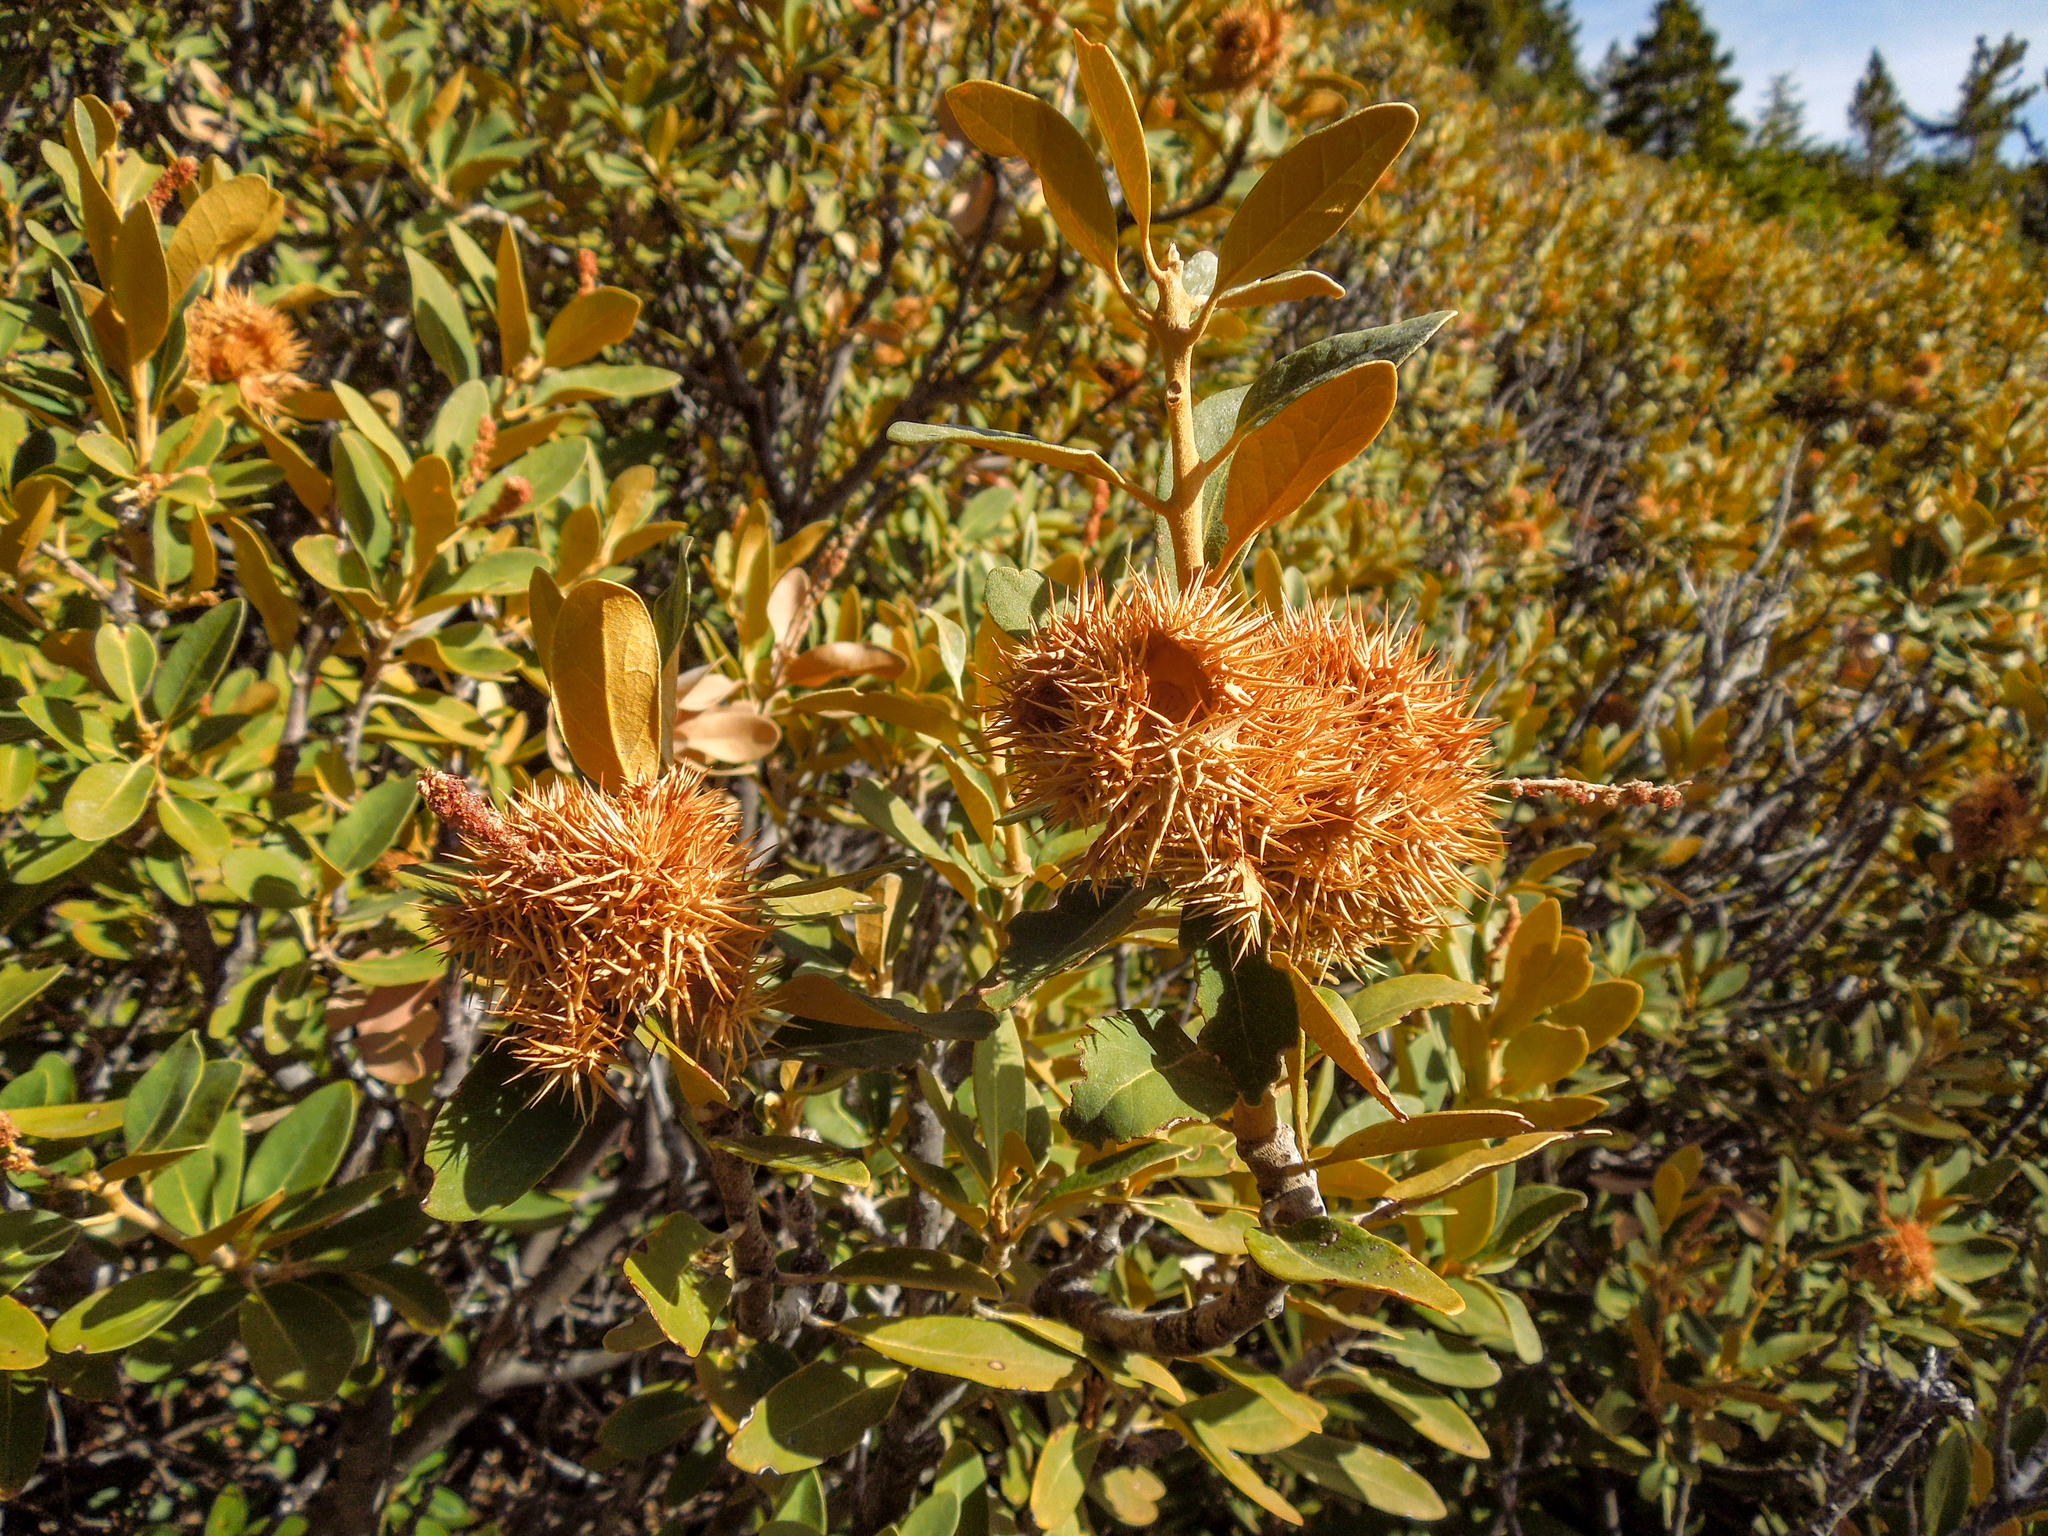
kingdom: Plantae
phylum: Tracheophyta
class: Magnoliopsida
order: Fagales
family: Fagaceae
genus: Chrysolepis
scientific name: Chrysolepis sempervirens
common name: Bush chinquapin
